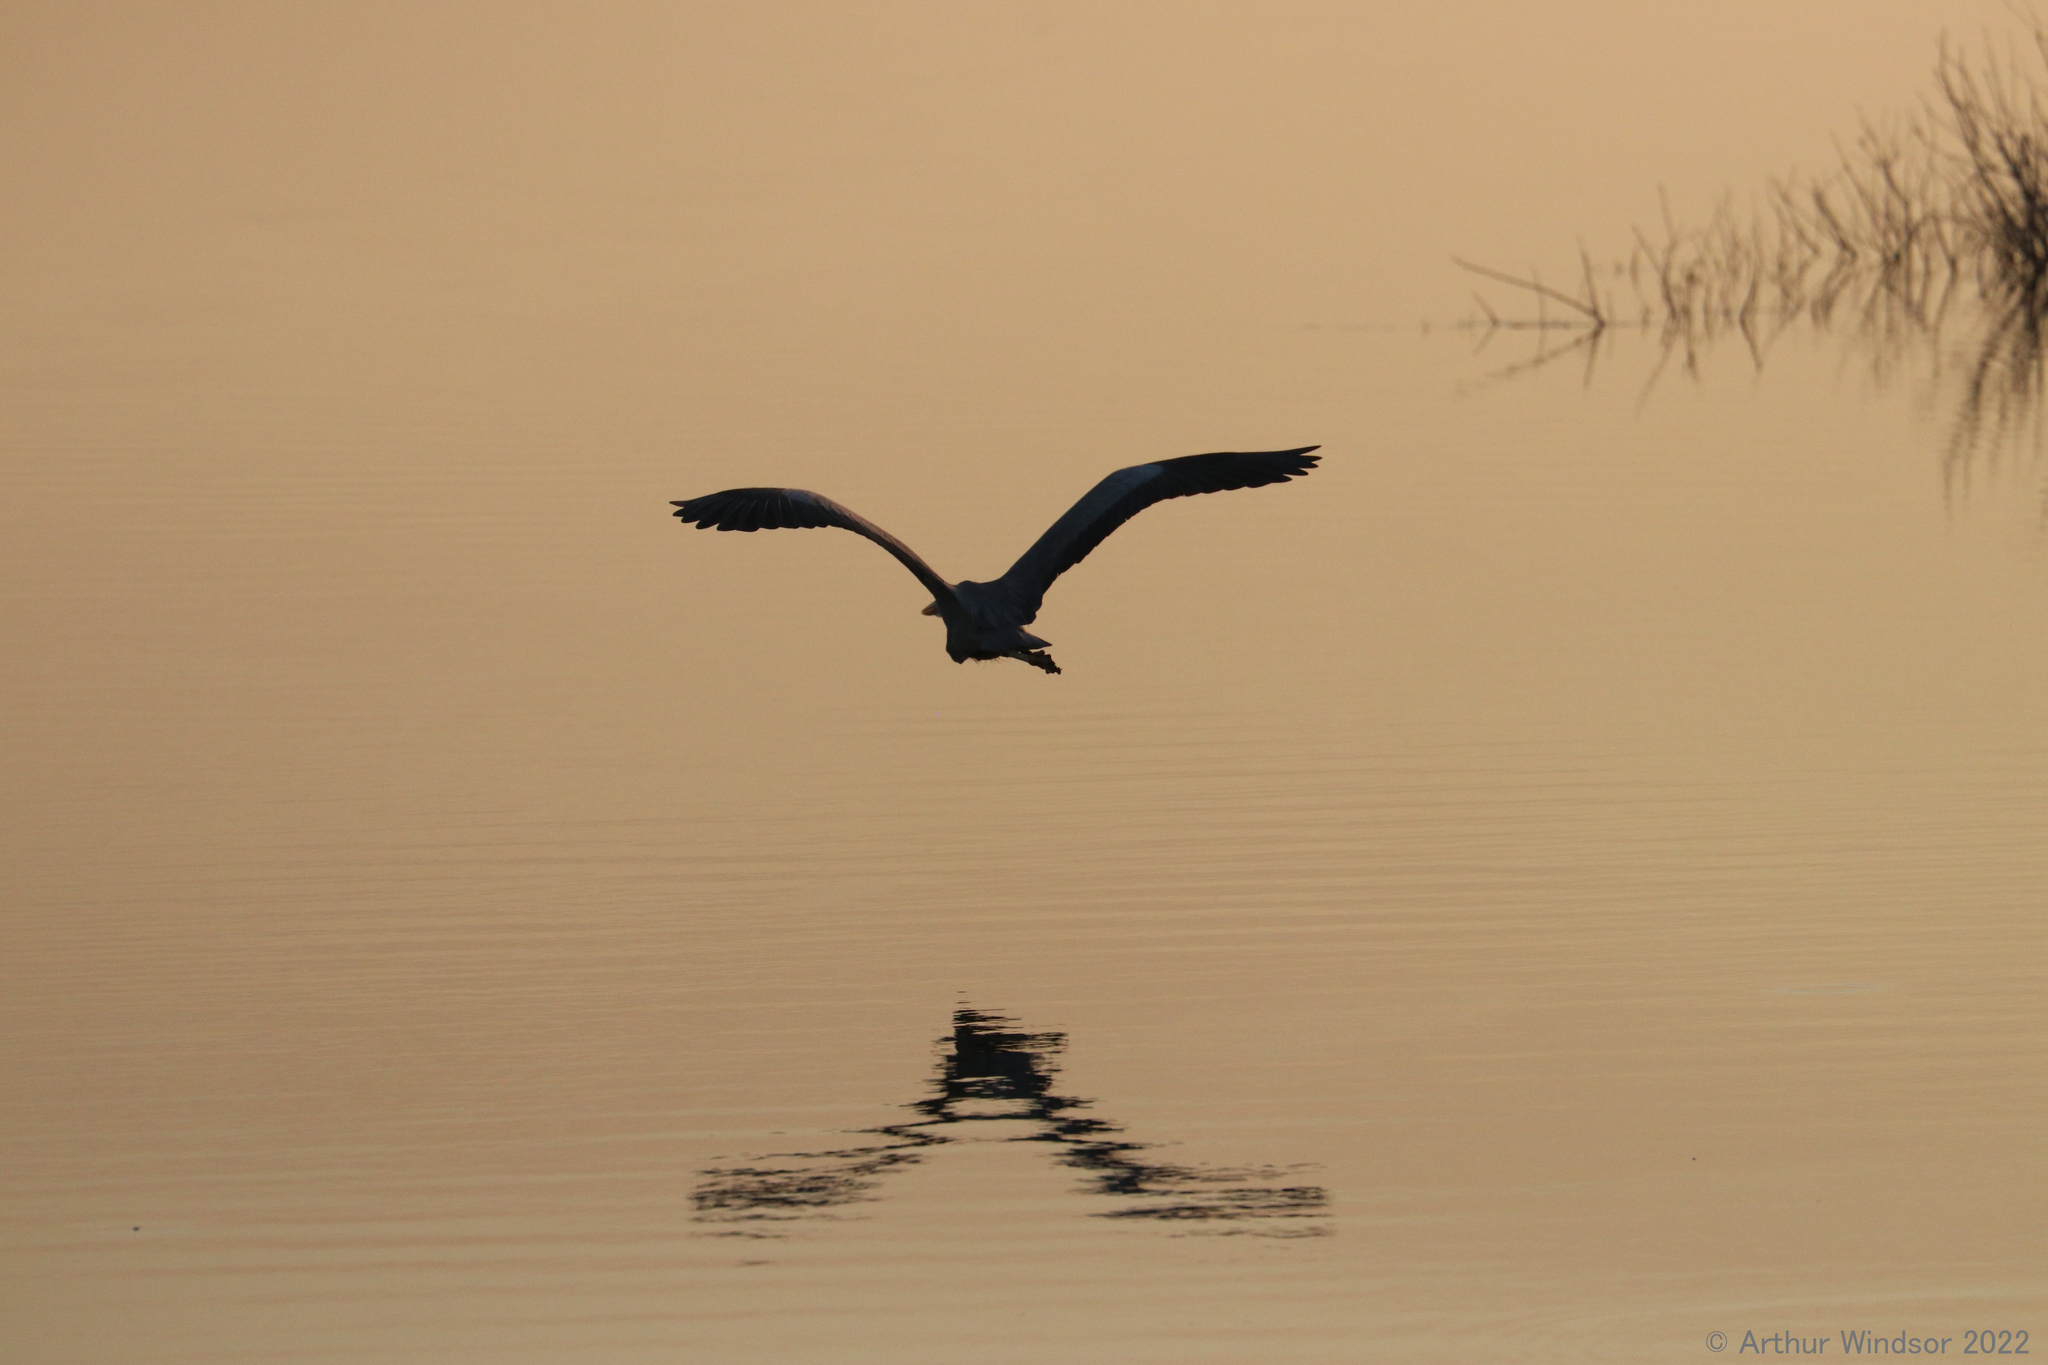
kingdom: Animalia
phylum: Chordata
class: Aves
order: Pelecaniformes
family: Ardeidae
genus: Ardea
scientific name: Ardea herodias
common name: Great blue heron
